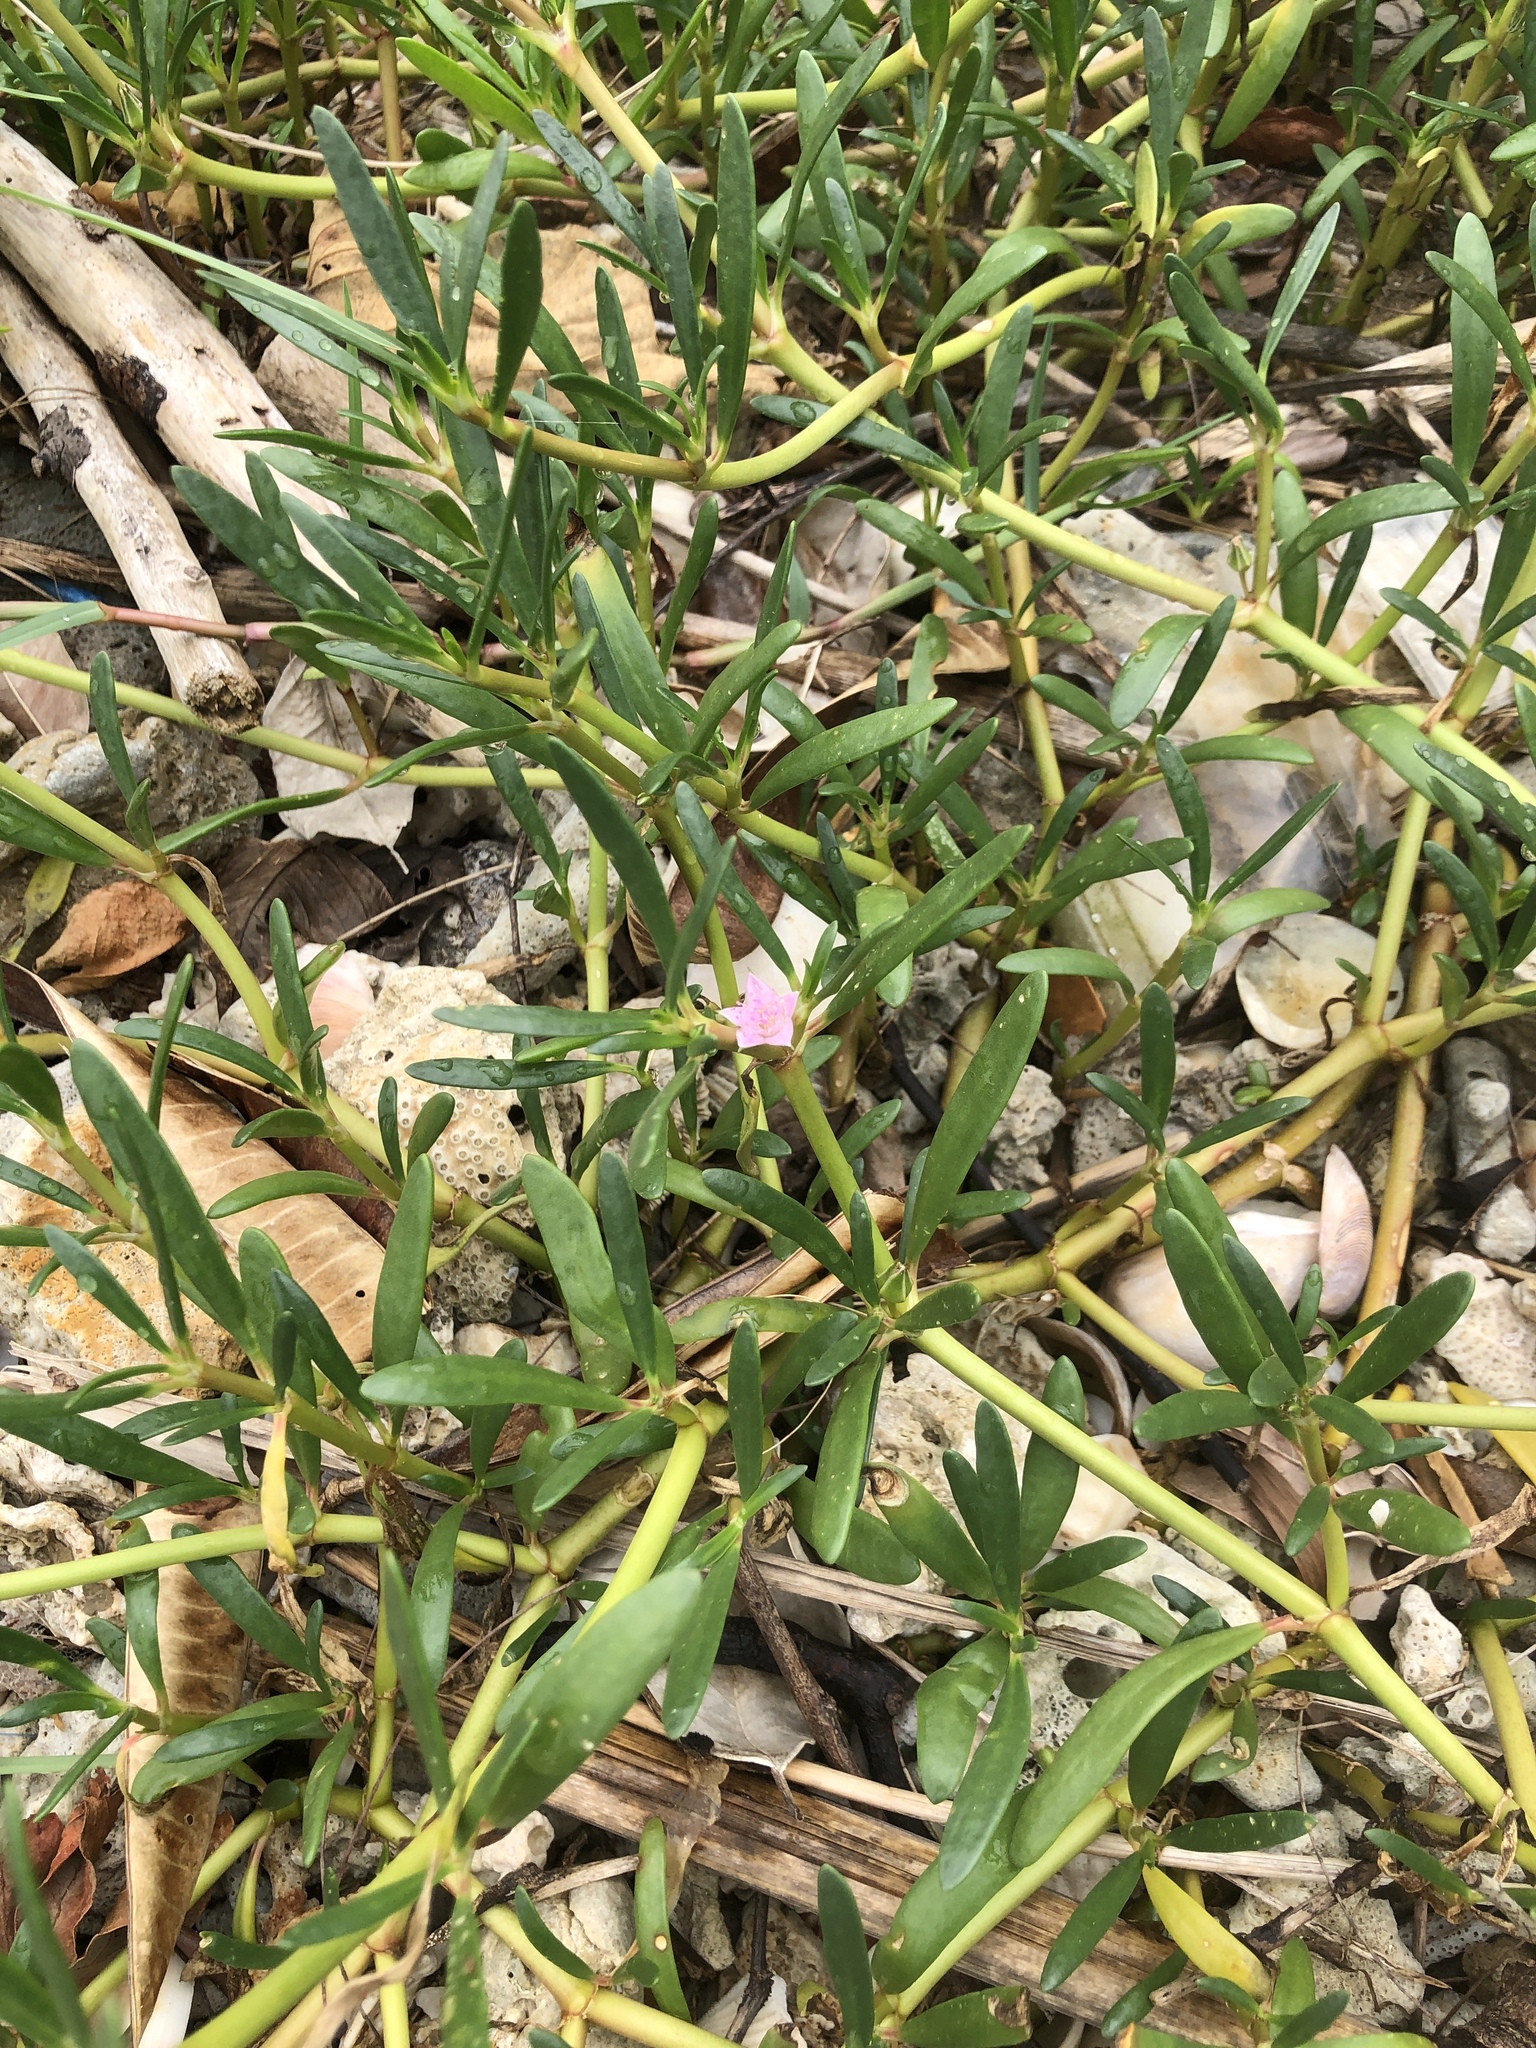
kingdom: Plantae
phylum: Tracheophyta
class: Magnoliopsida
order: Caryophyllales
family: Aizoaceae
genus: Sesuvium
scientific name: Sesuvium portulacastrum
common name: Sea-purslane
